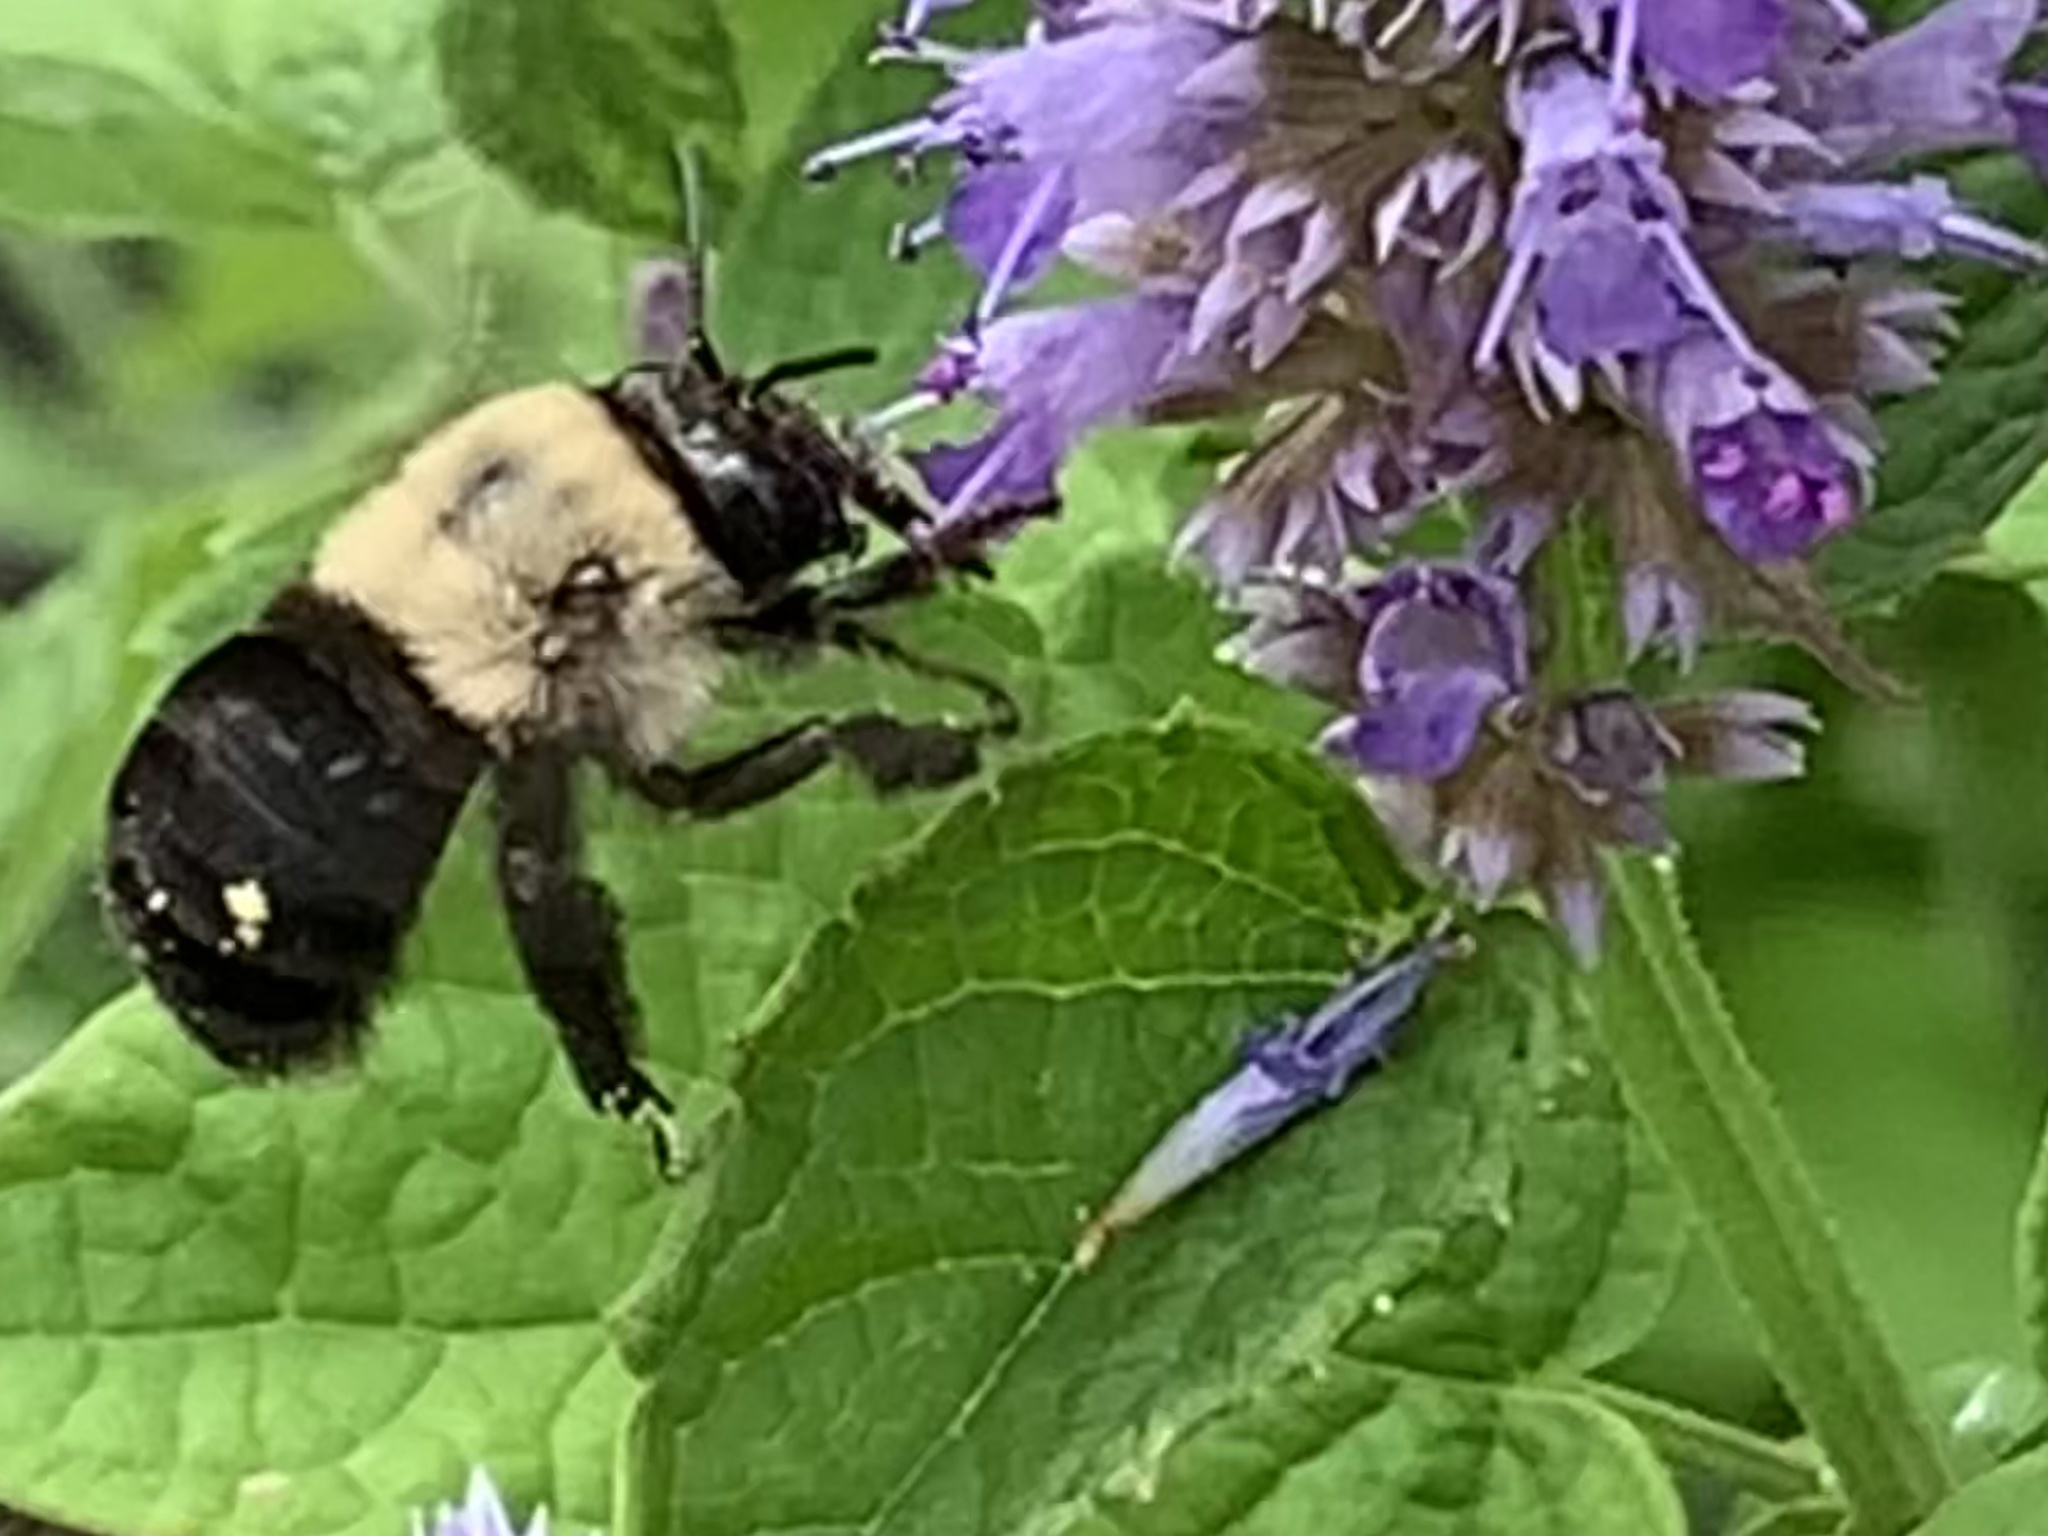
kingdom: Animalia
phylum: Arthropoda
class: Insecta
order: Hymenoptera
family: Apidae
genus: Anthophora
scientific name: Anthophora abrupta
